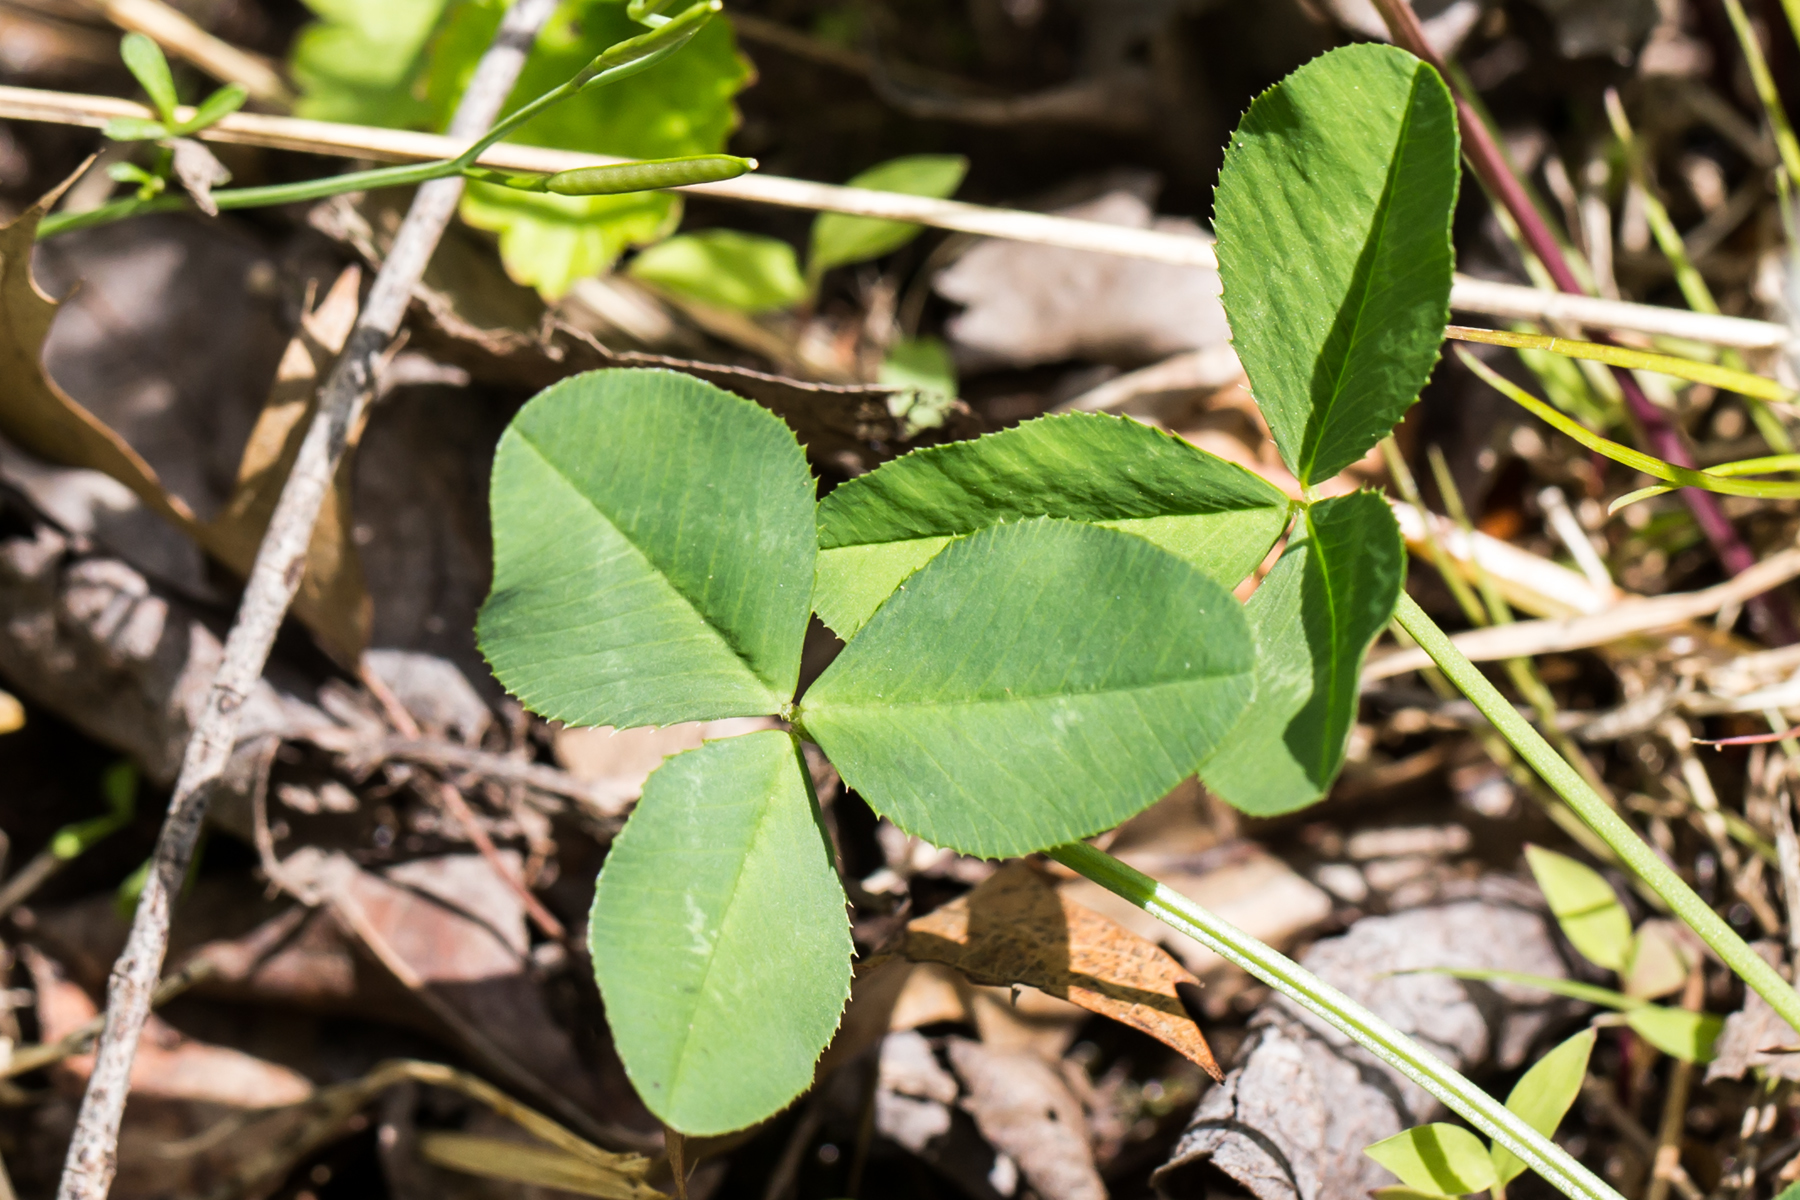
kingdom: Plantae
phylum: Tracheophyta
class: Magnoliopsida
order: Fabales
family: Fabaceae
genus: Trifolium
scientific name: Trifolium repens
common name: White clover
